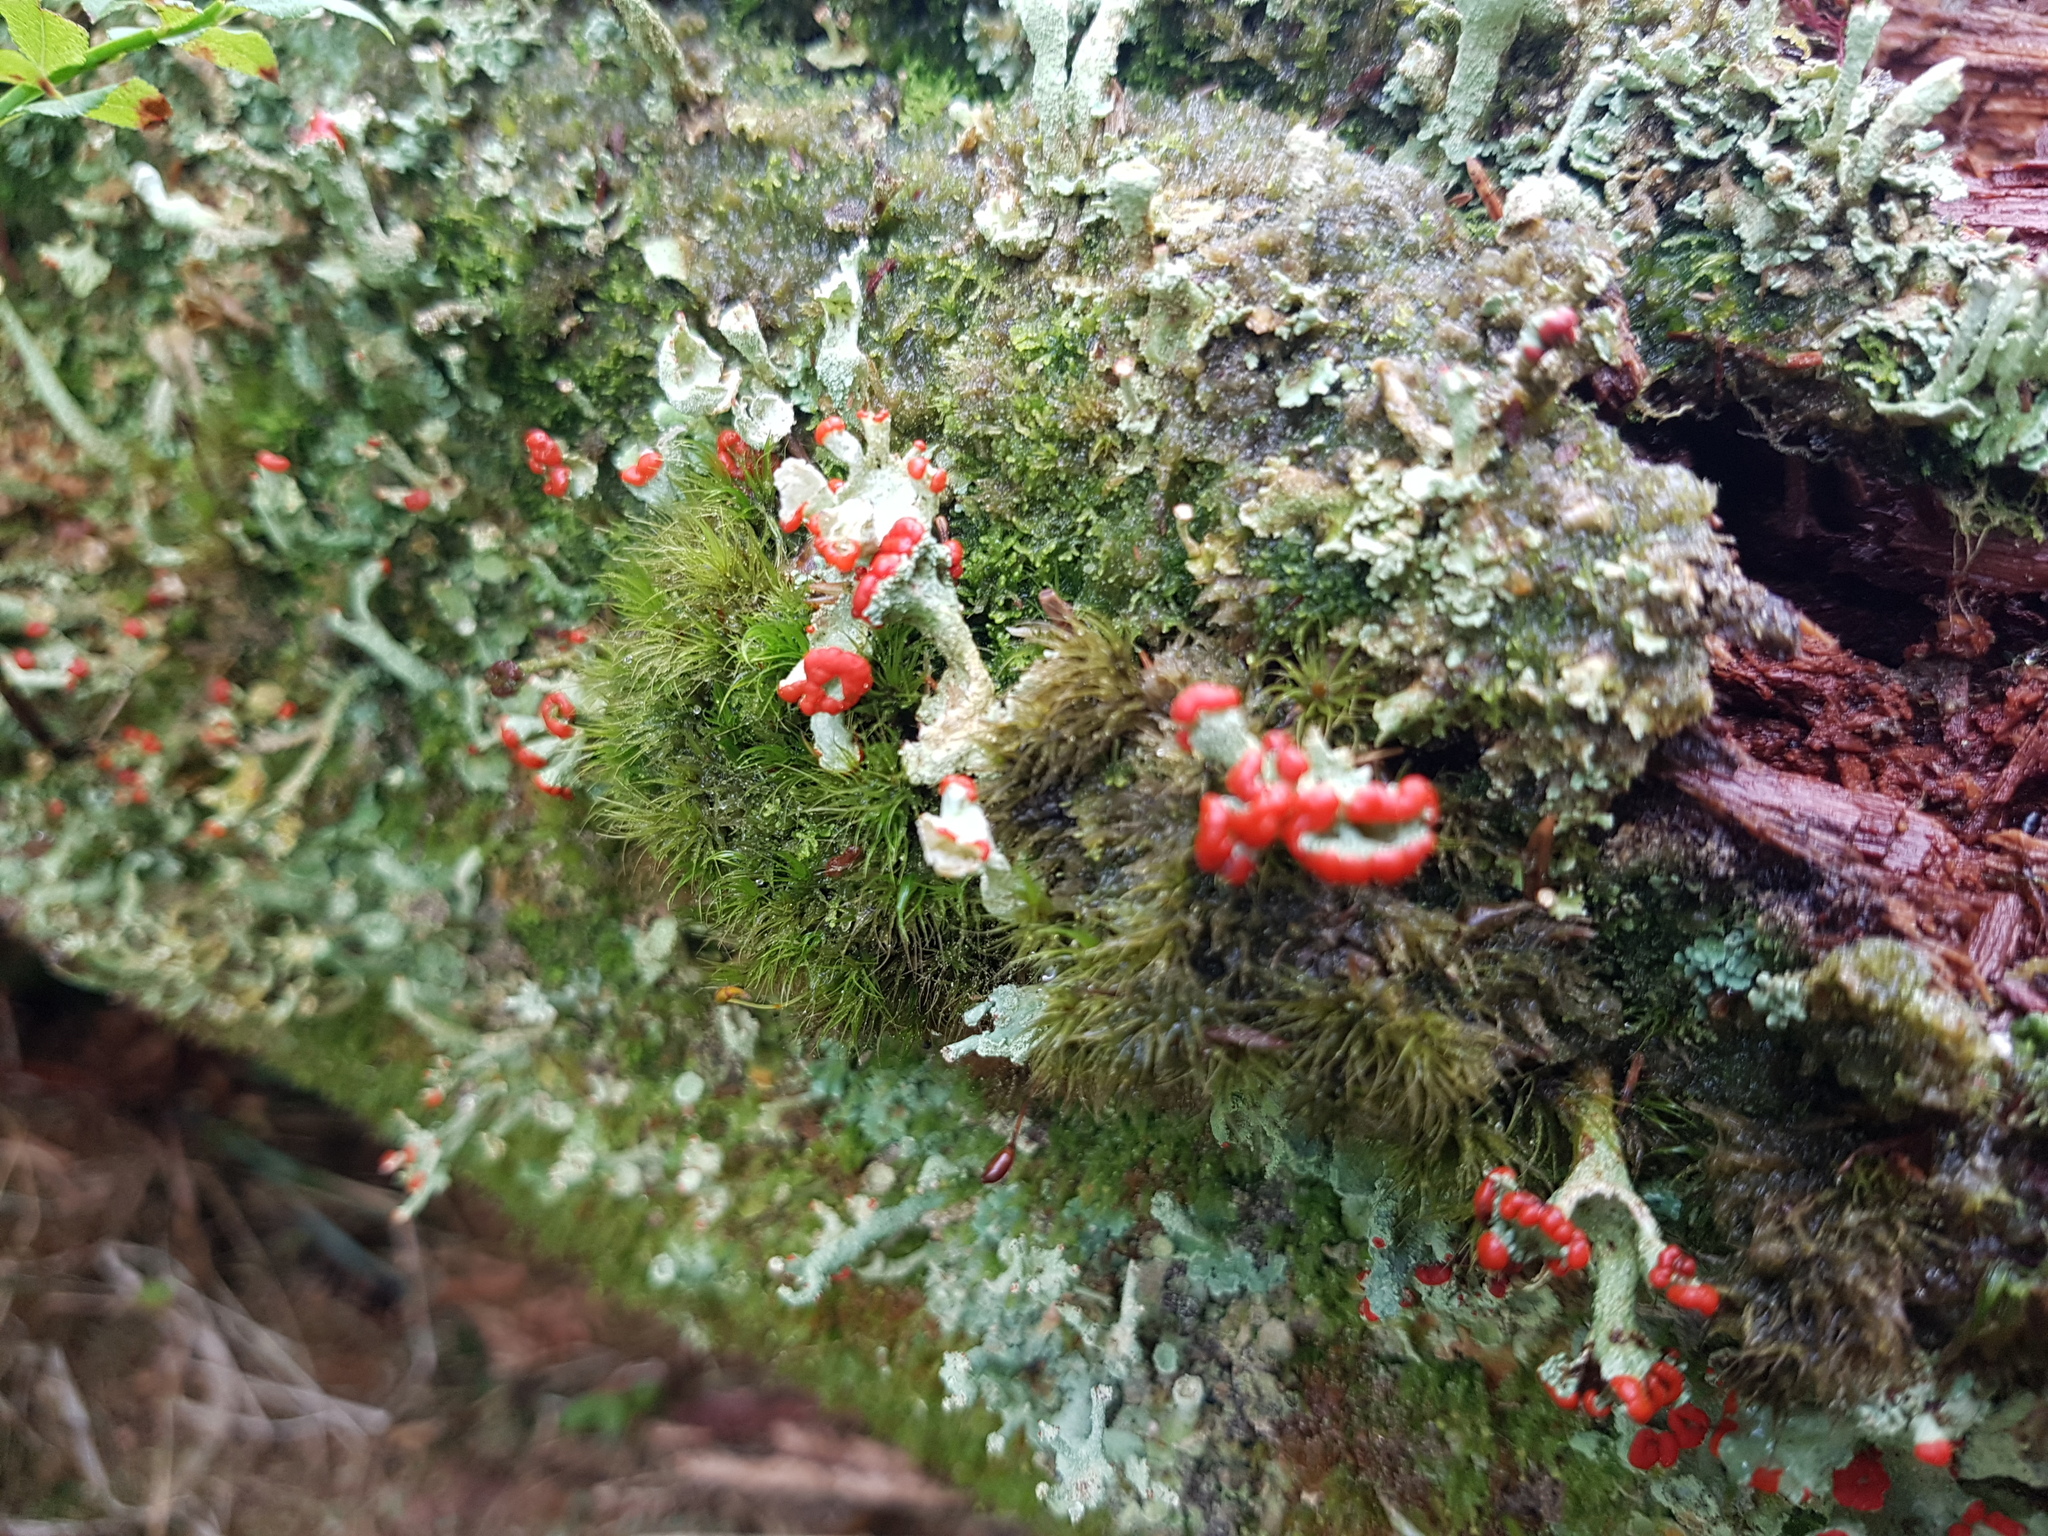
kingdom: Fungi
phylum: Ascomycota
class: Lecanoromycetes
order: Lecanorales
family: Cladoniaceae
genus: Cladonia
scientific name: Cladonia digitata
